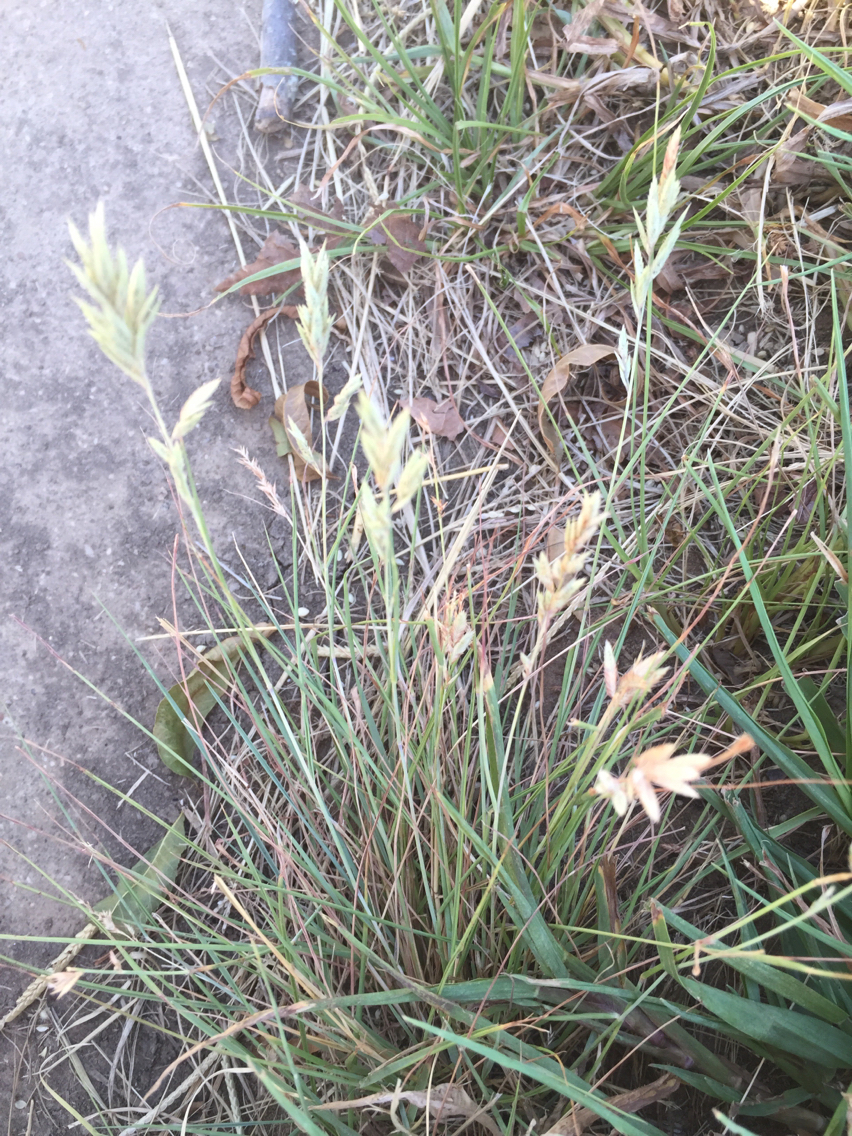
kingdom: Plantae
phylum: Tracheophyta
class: Liliopsida
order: Poales
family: Poaceae
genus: Eragrostis
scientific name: Eragrostis secundiflora
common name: Red love grass
